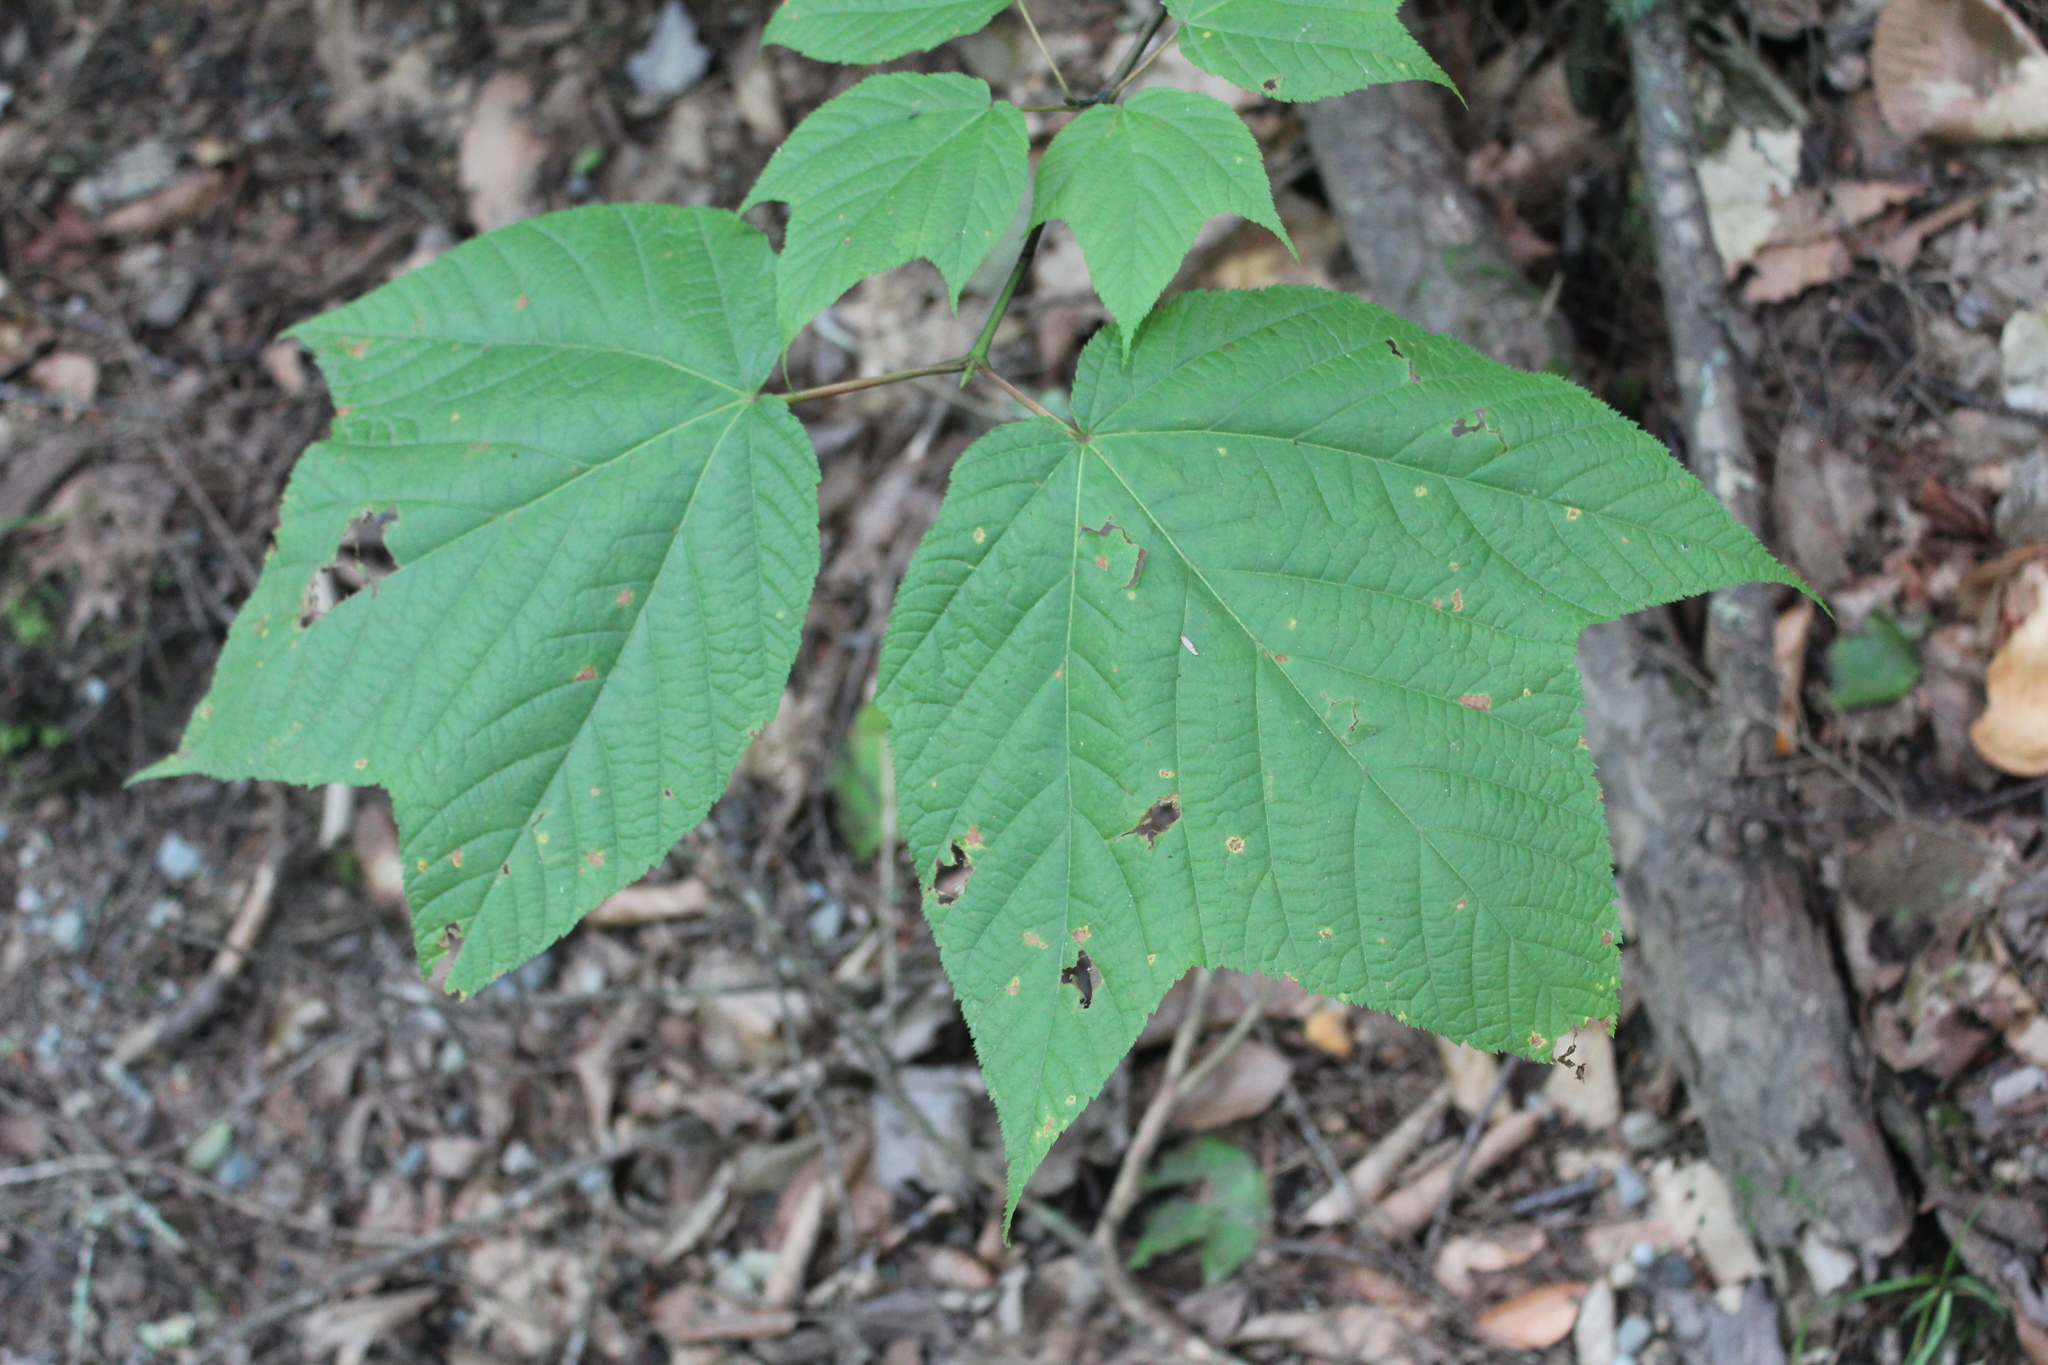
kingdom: Plantae
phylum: Tracheophyta
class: Magnoliopsida
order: Sapindales
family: Sapindaceae
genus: Acer
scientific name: Acer pensylvanicum
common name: Moosewood
